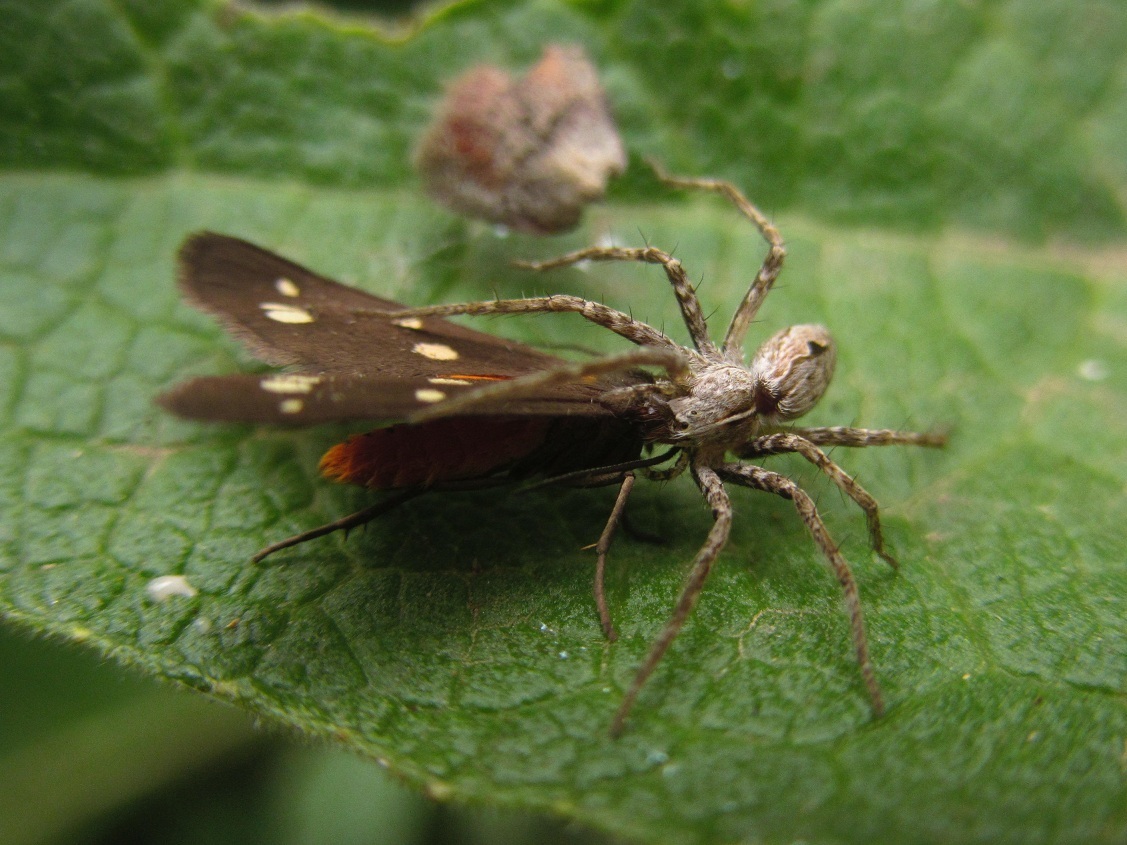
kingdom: Animalia
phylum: Arthropoda
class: Arachnida
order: Araneae
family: Pisauridae
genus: Pisaura
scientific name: Pisaura
